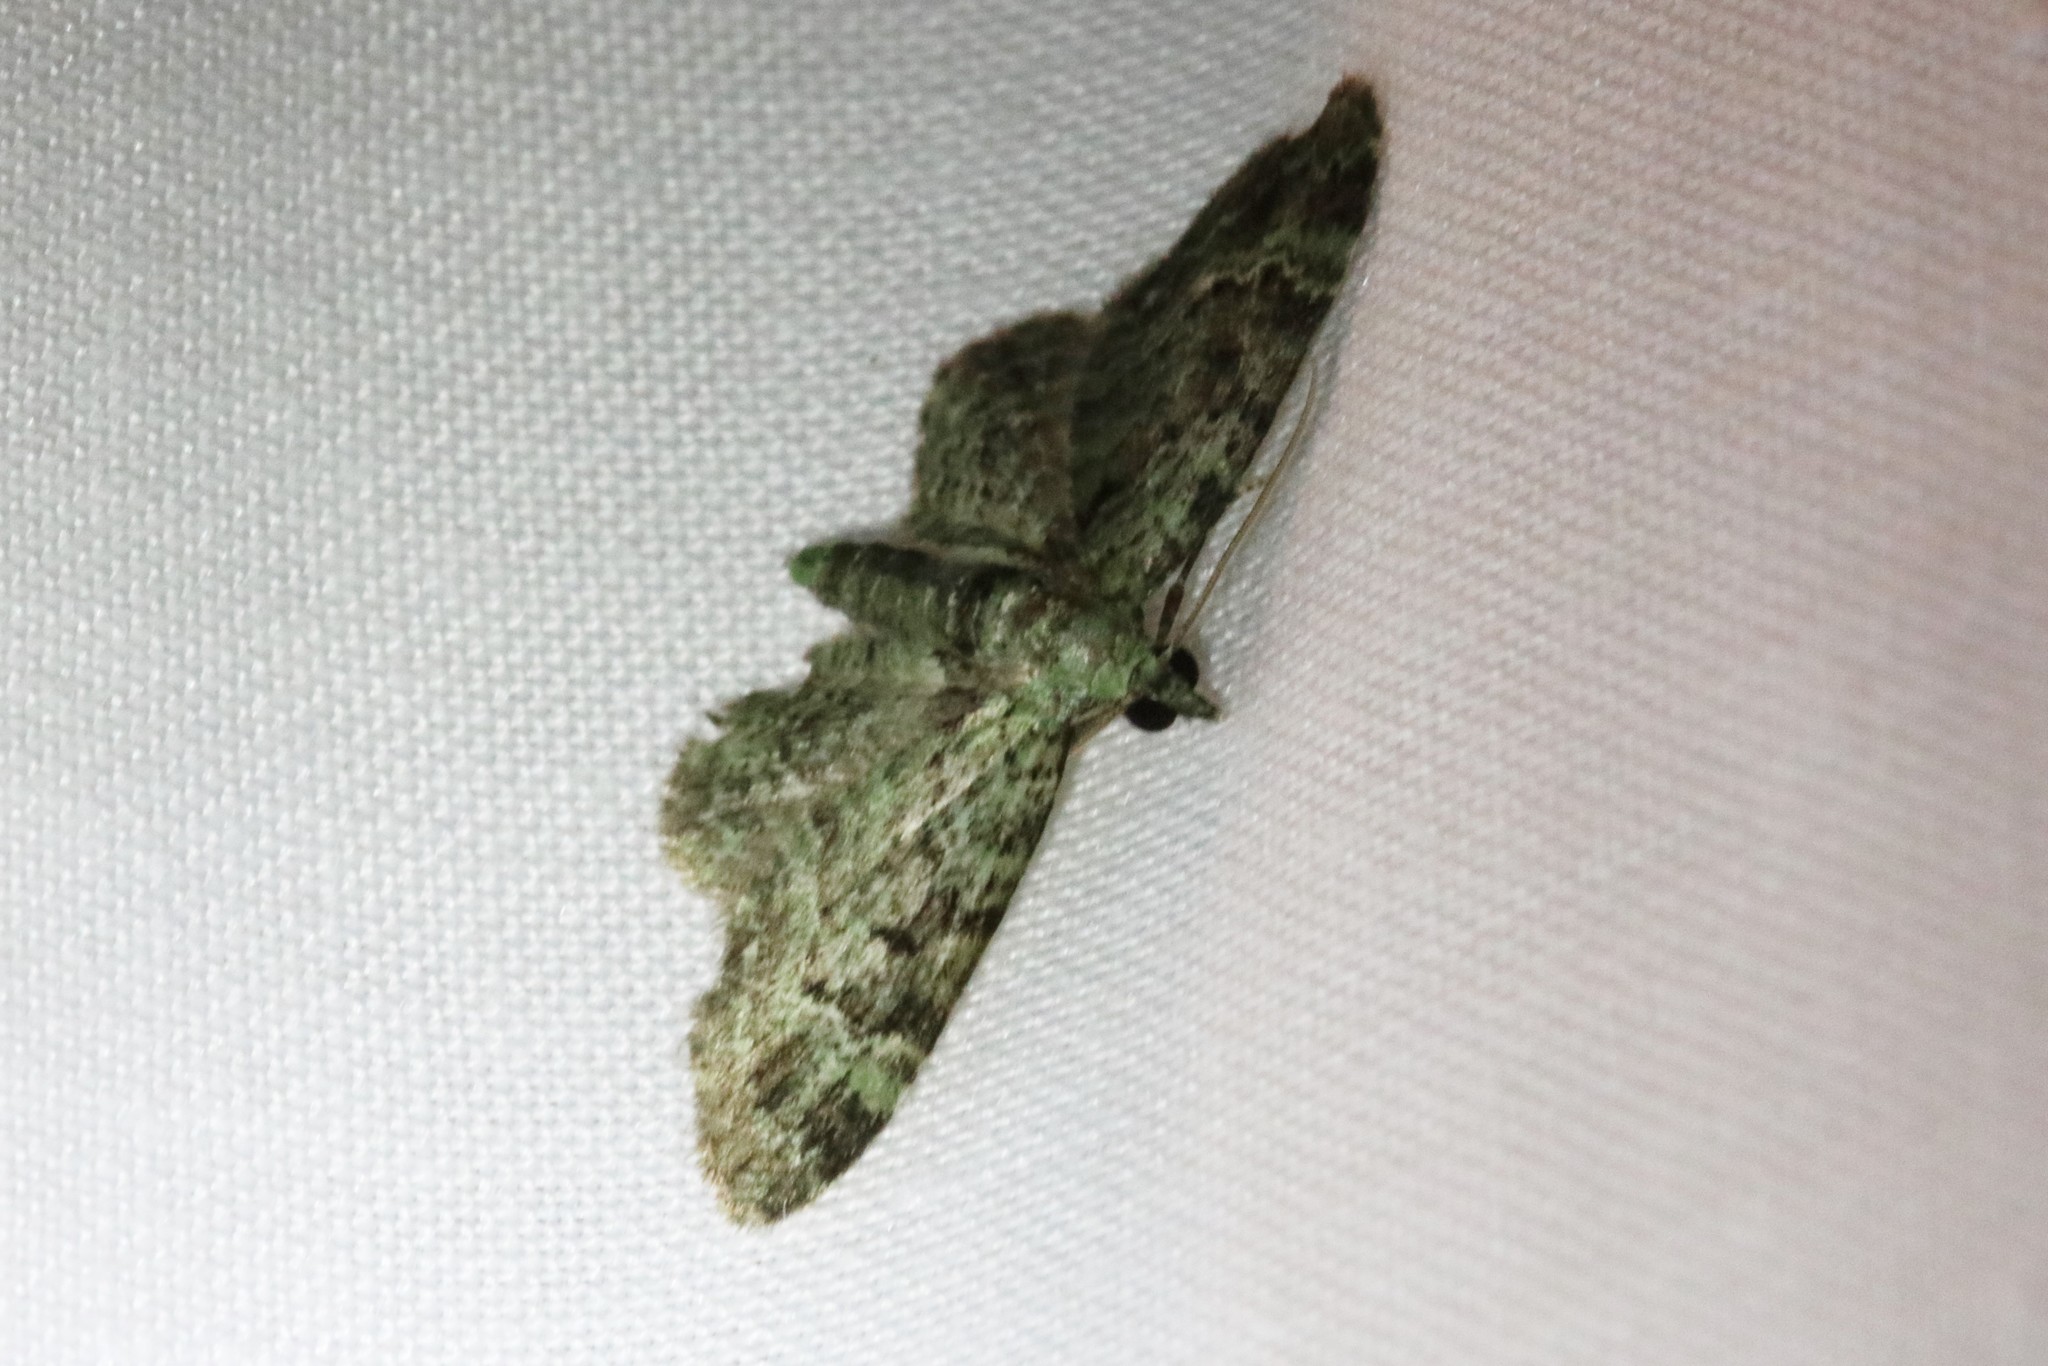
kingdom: Animalia
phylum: Arthropoda
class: Insecta
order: Lepidoptera
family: Geometridae
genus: Pasiphila
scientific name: Pasiphila rectangulata
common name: Green pug
